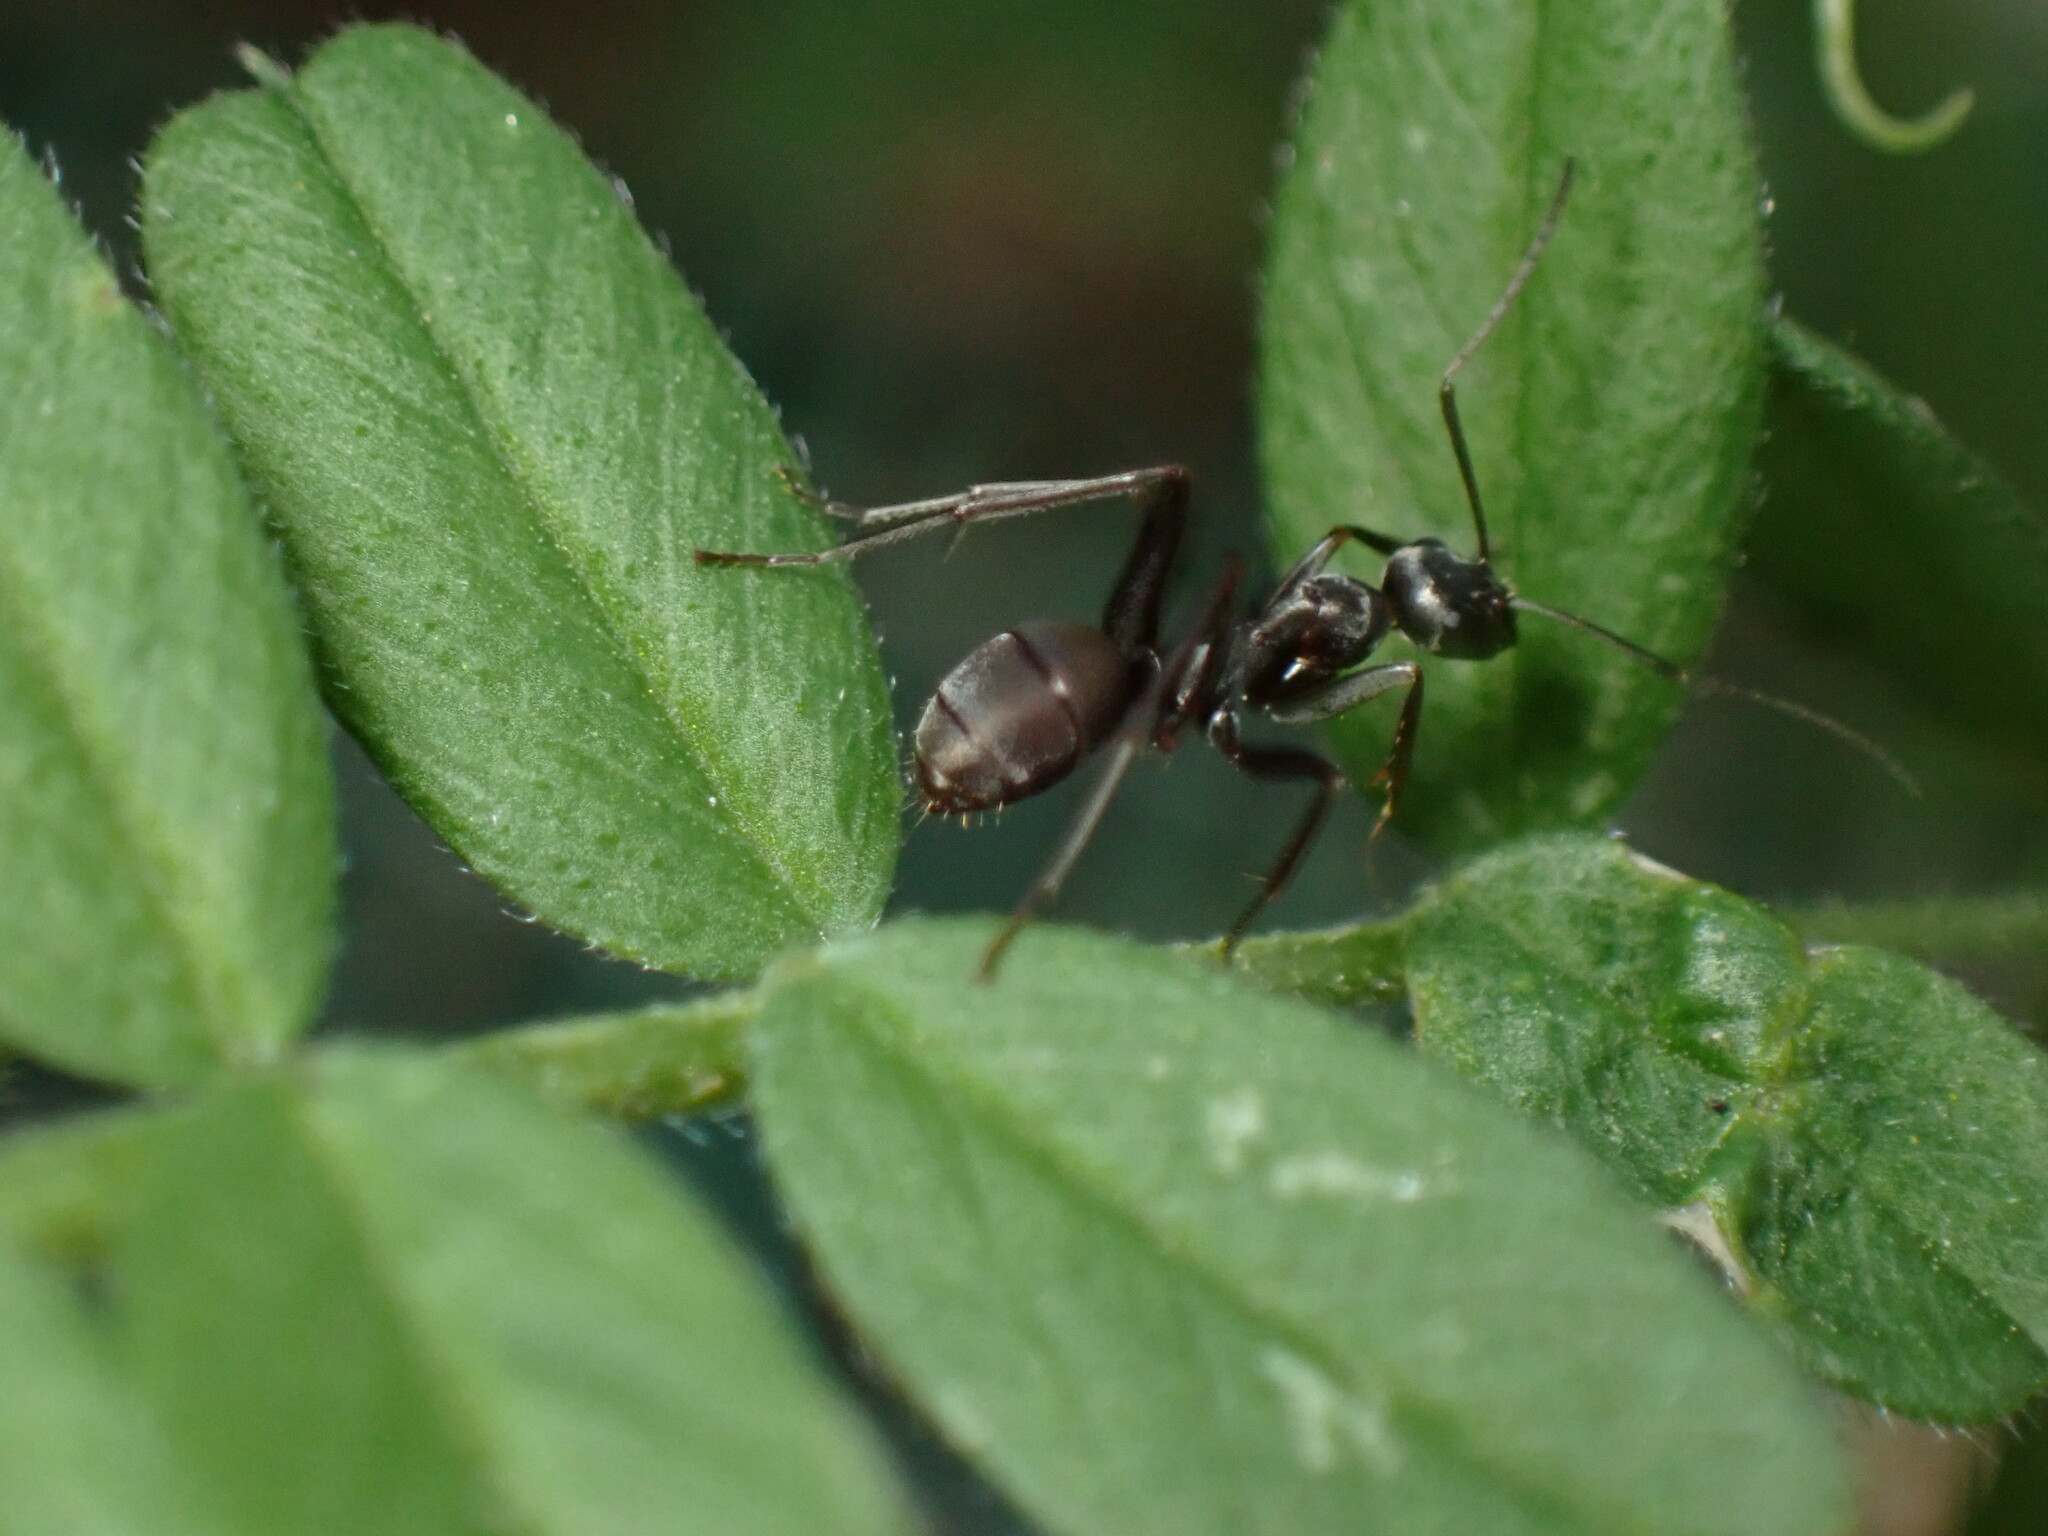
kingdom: Animalia
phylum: Arthropoda
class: Insecta
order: Hymenoptera
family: Formicidae
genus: Formica
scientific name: Formica japonica
